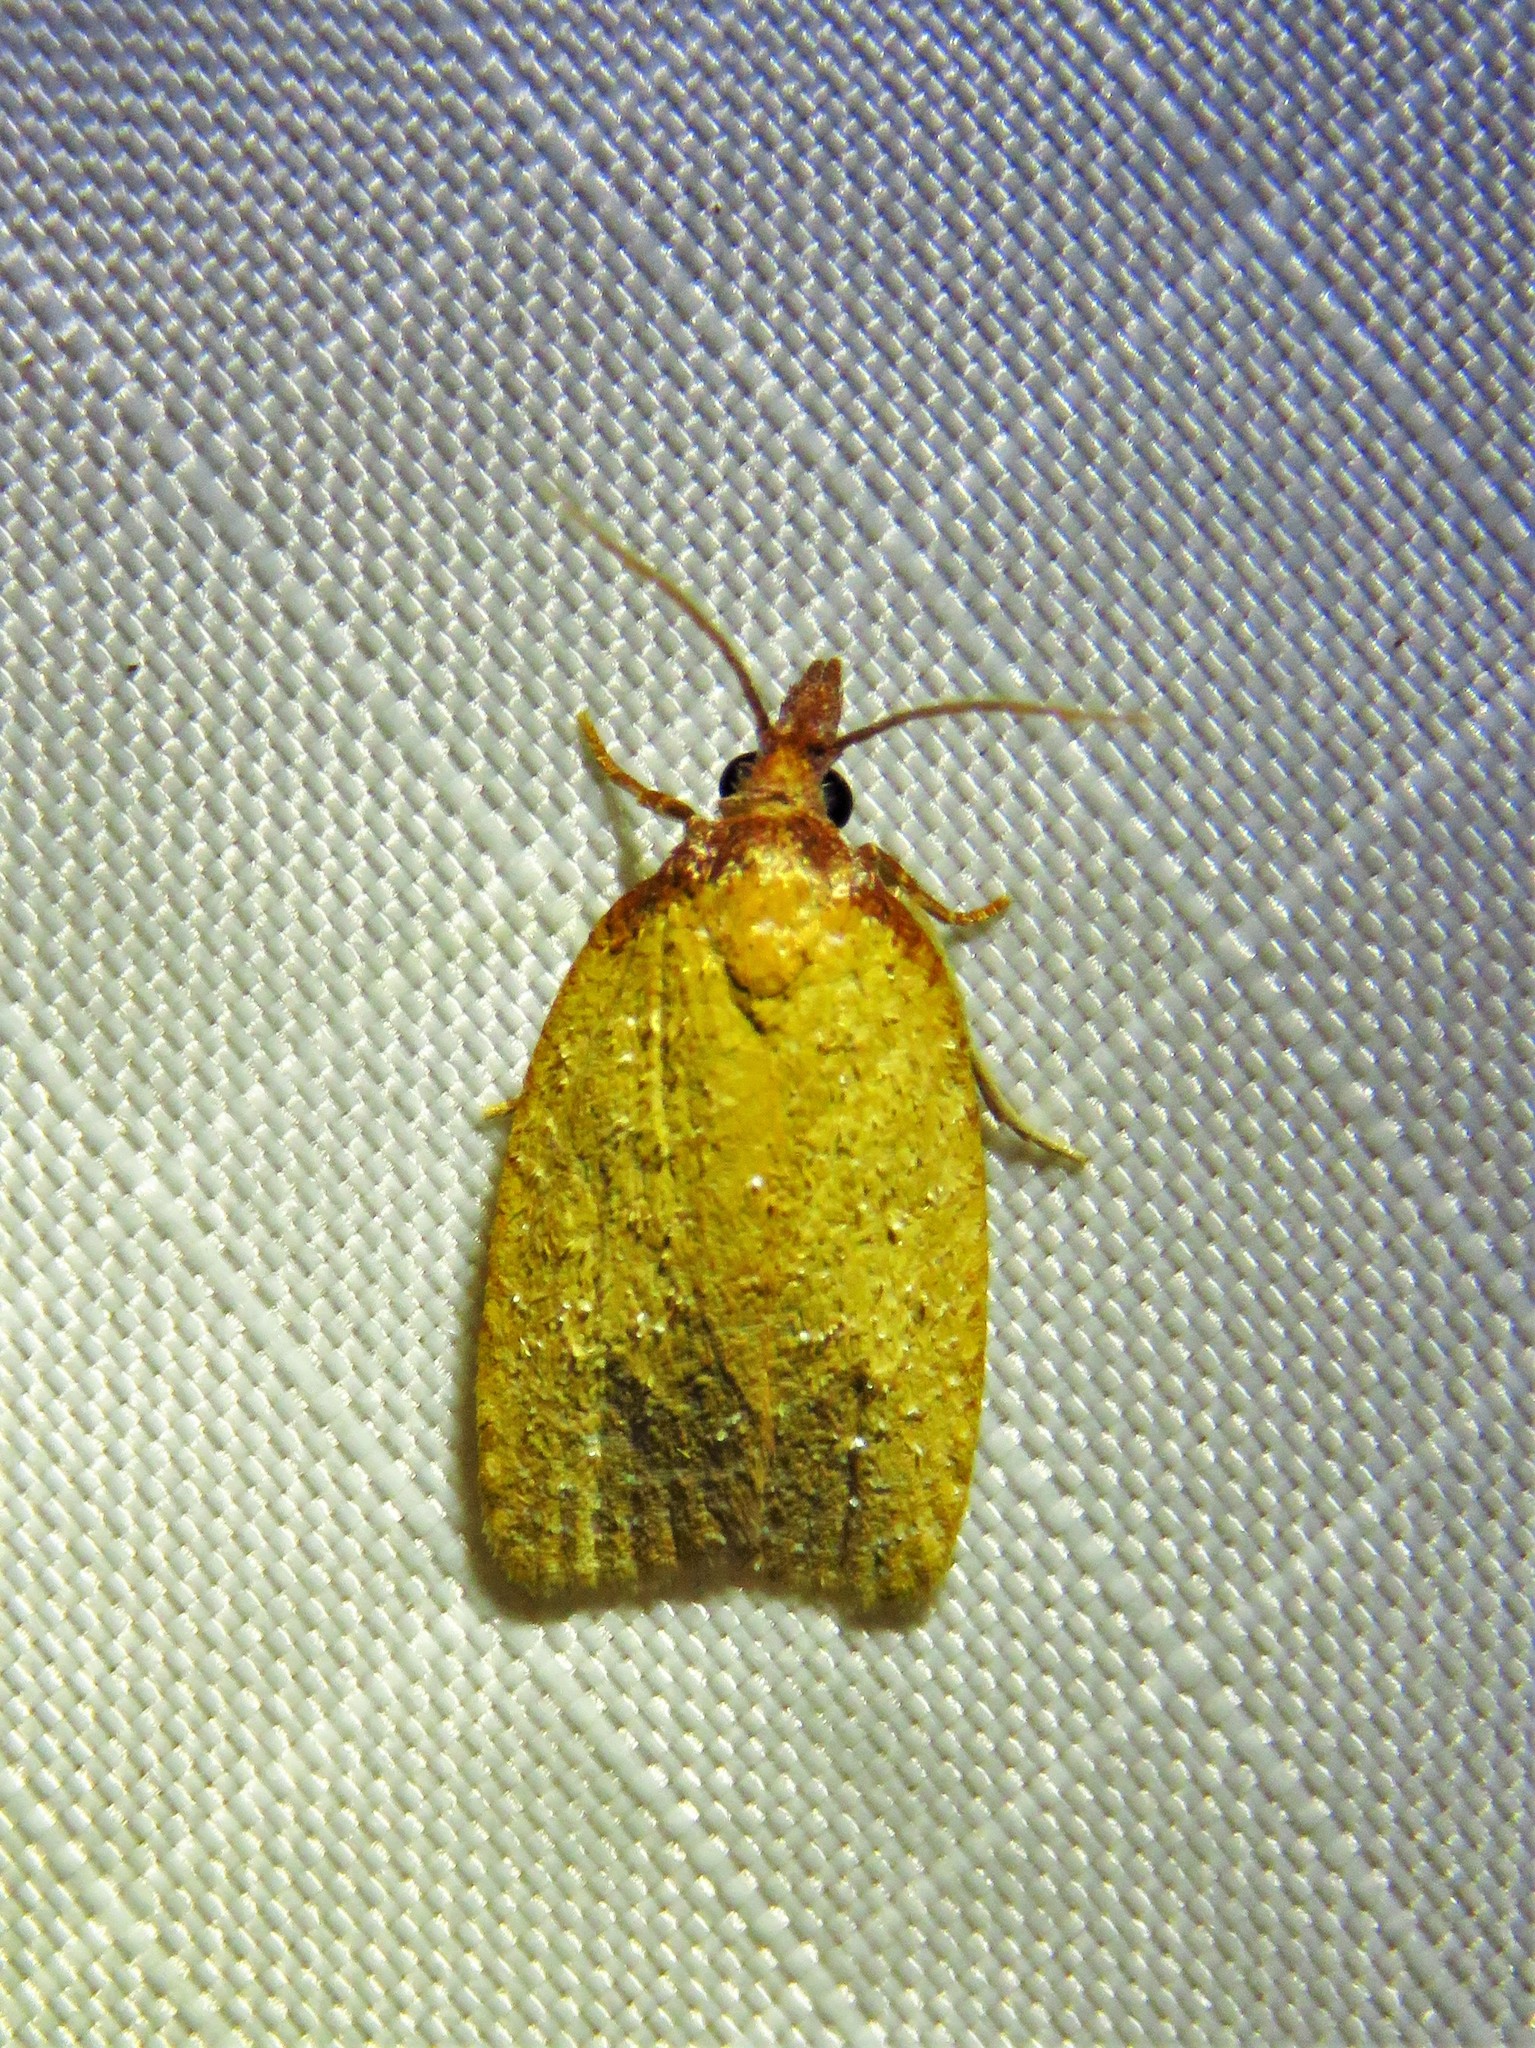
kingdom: Animalia
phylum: Arthropoda
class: Insecta
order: Lepidoptera
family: Tortricidae
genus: Sparganothis
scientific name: Sparganothis distincta
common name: Distinct sparganothis moth
